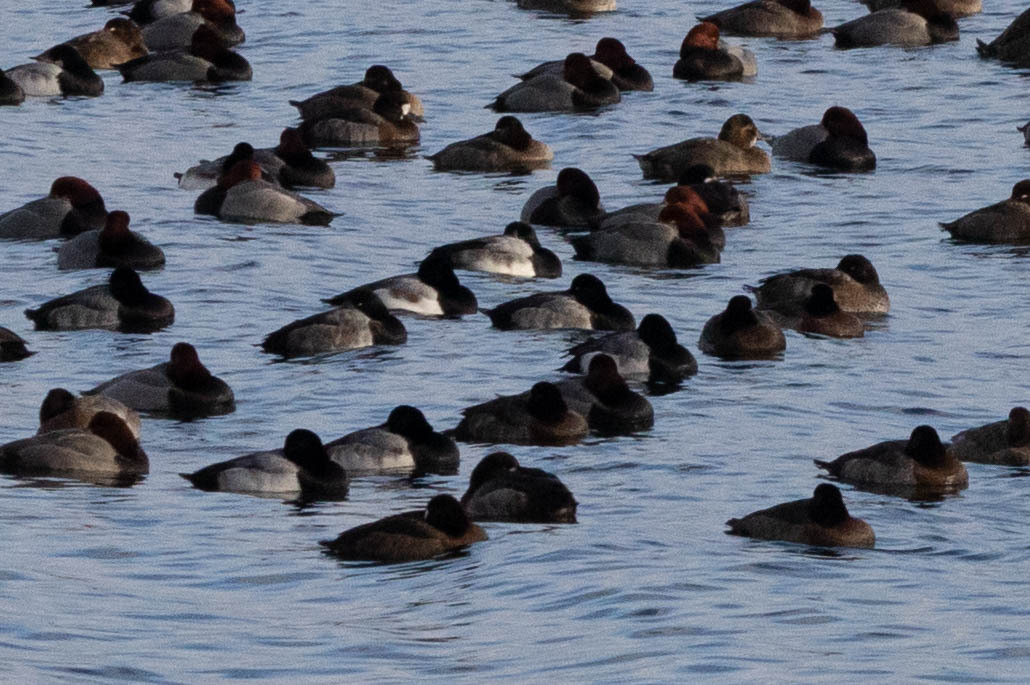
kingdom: Animalia
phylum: Chordata
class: Aves
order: Anseriformes
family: Anatidae
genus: Aythya
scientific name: Aythya marila
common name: Greater scaup
